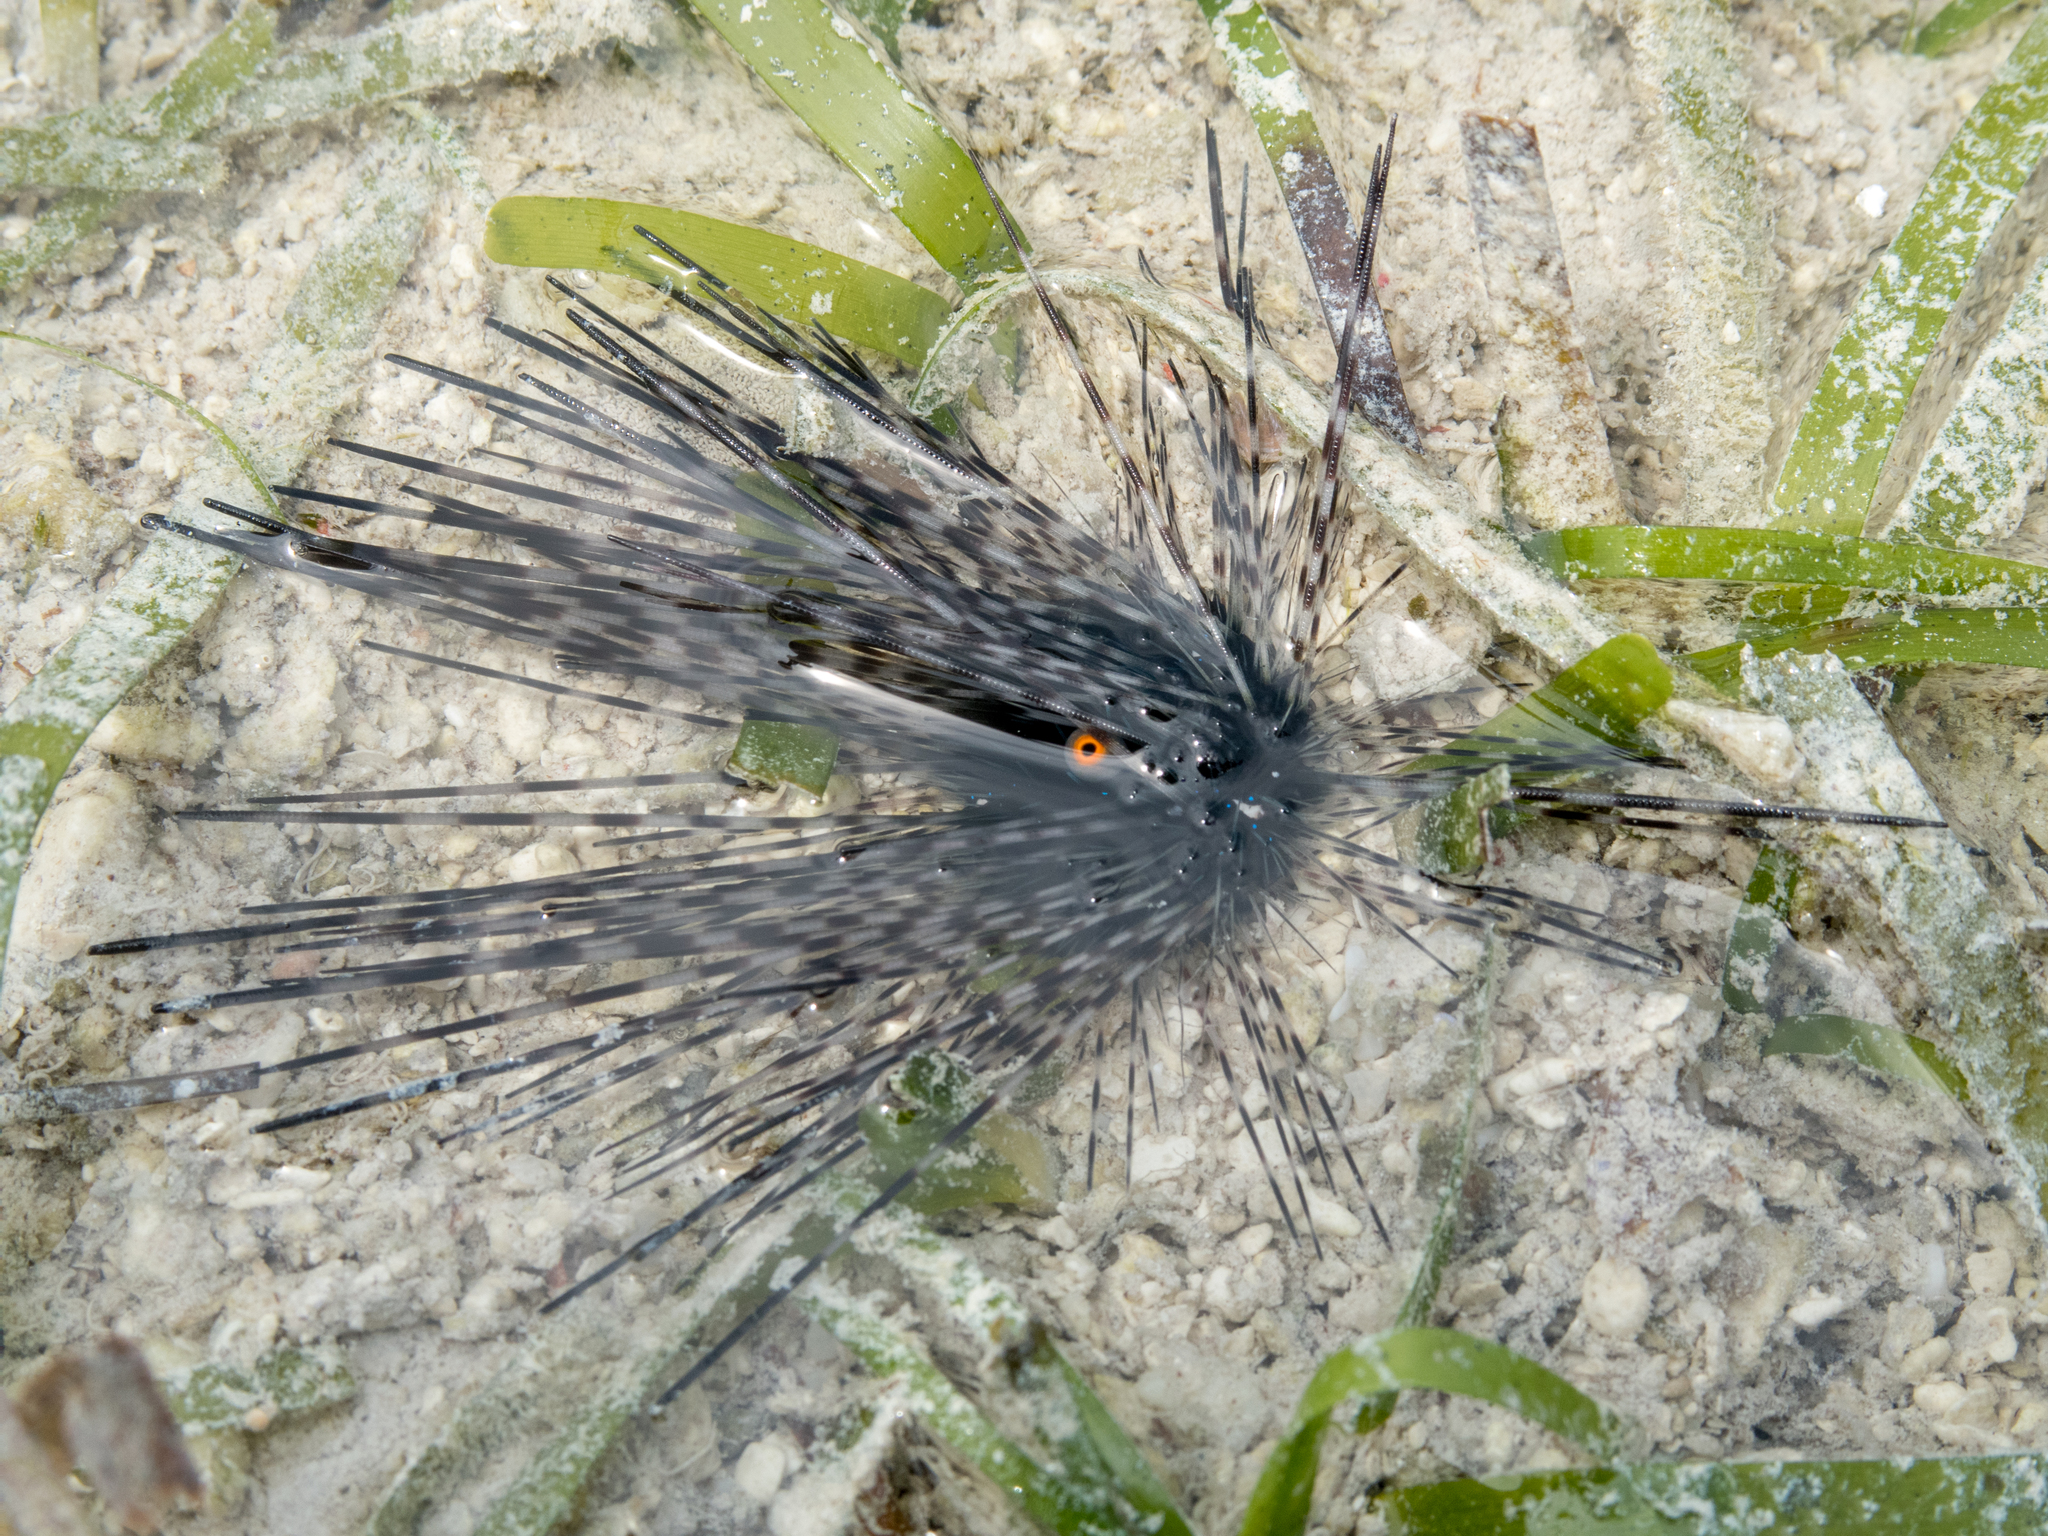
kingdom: Animalia
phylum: Echinodermata
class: Echinoidea
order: Diadematoida
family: Diadematidae
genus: Diadema
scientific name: Diadema setosum
